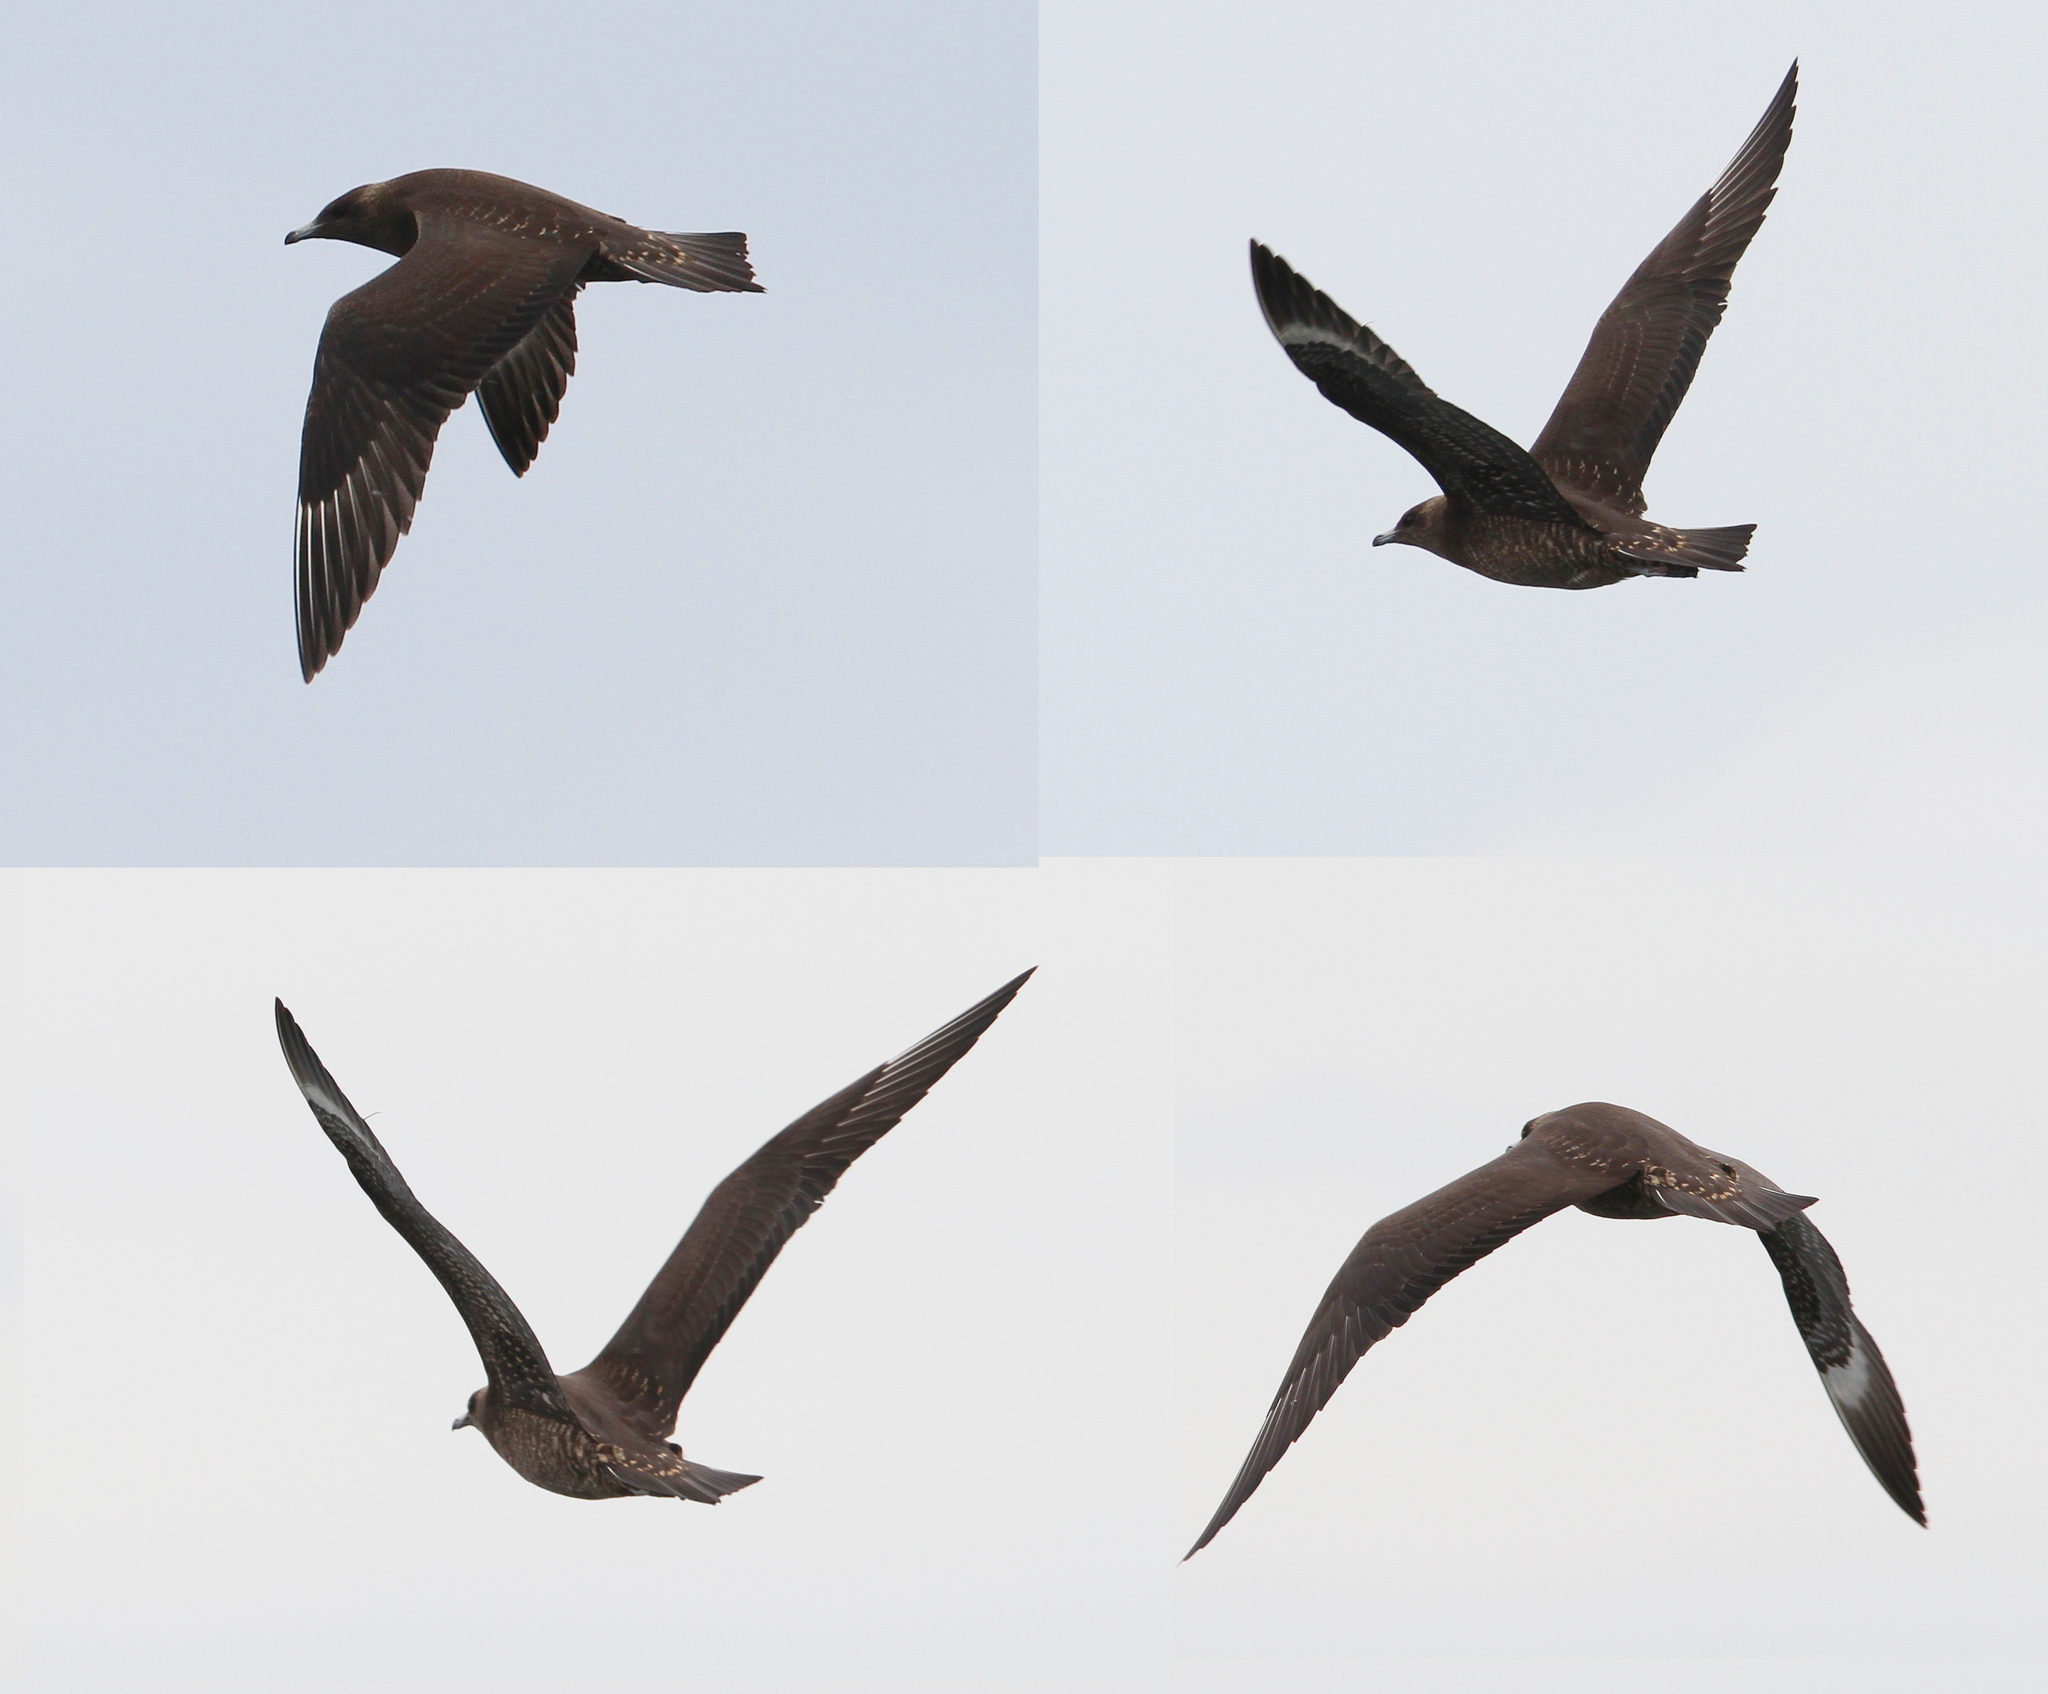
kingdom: Animalia
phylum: Chordata
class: Aves
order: Charadriiformes
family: Stercorariidae
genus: Stercorarius
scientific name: Stercorarius parasiticus
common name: Parasitic jaeger
